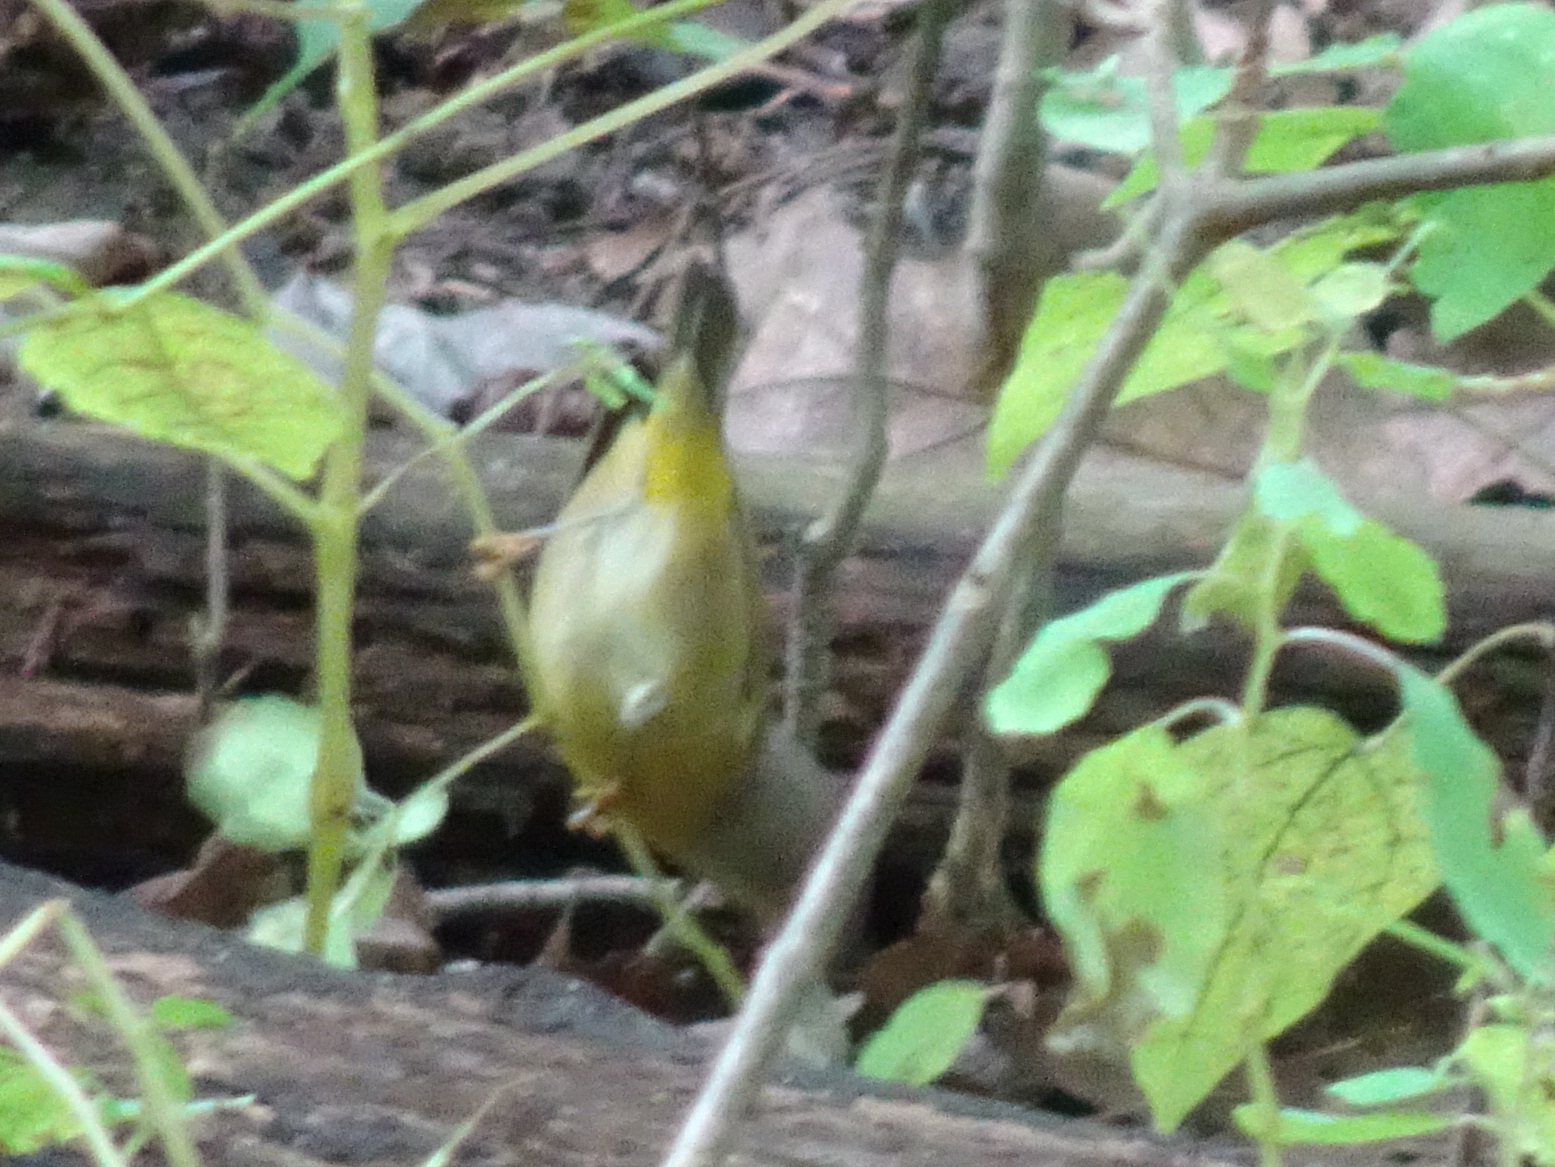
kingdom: Animalia
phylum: Chordata
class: Aves
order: Passeriformes
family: Parulidae
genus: Leiothlypis
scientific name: Leiothlypis ruficapilla
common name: Nashville warbler
